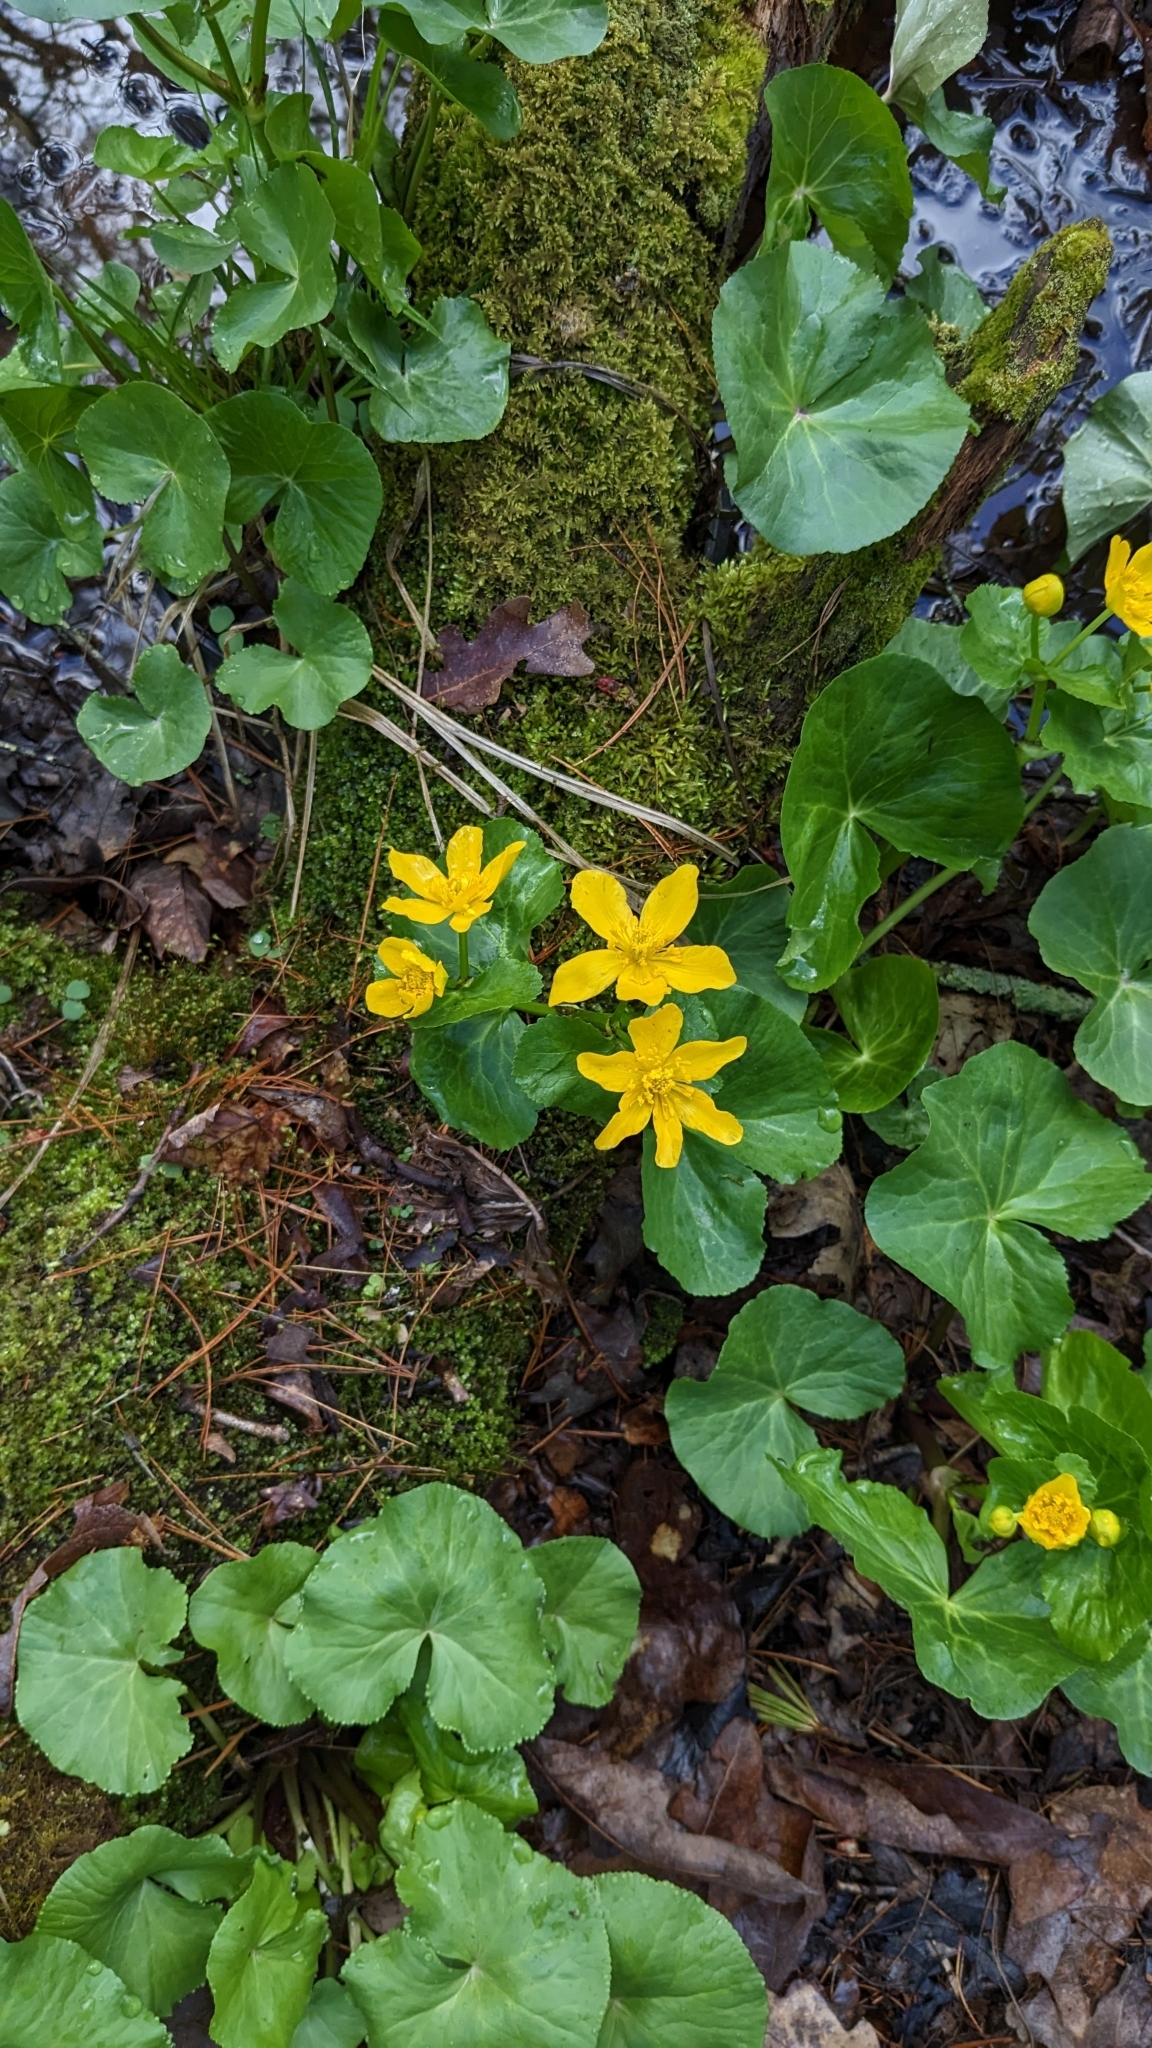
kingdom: Plantae
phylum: Tracheophyta
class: Magnoliopsida
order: Ranunculales
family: Ranunculaceae
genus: Caltha
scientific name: Caltha palustris
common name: Marsh marigold
